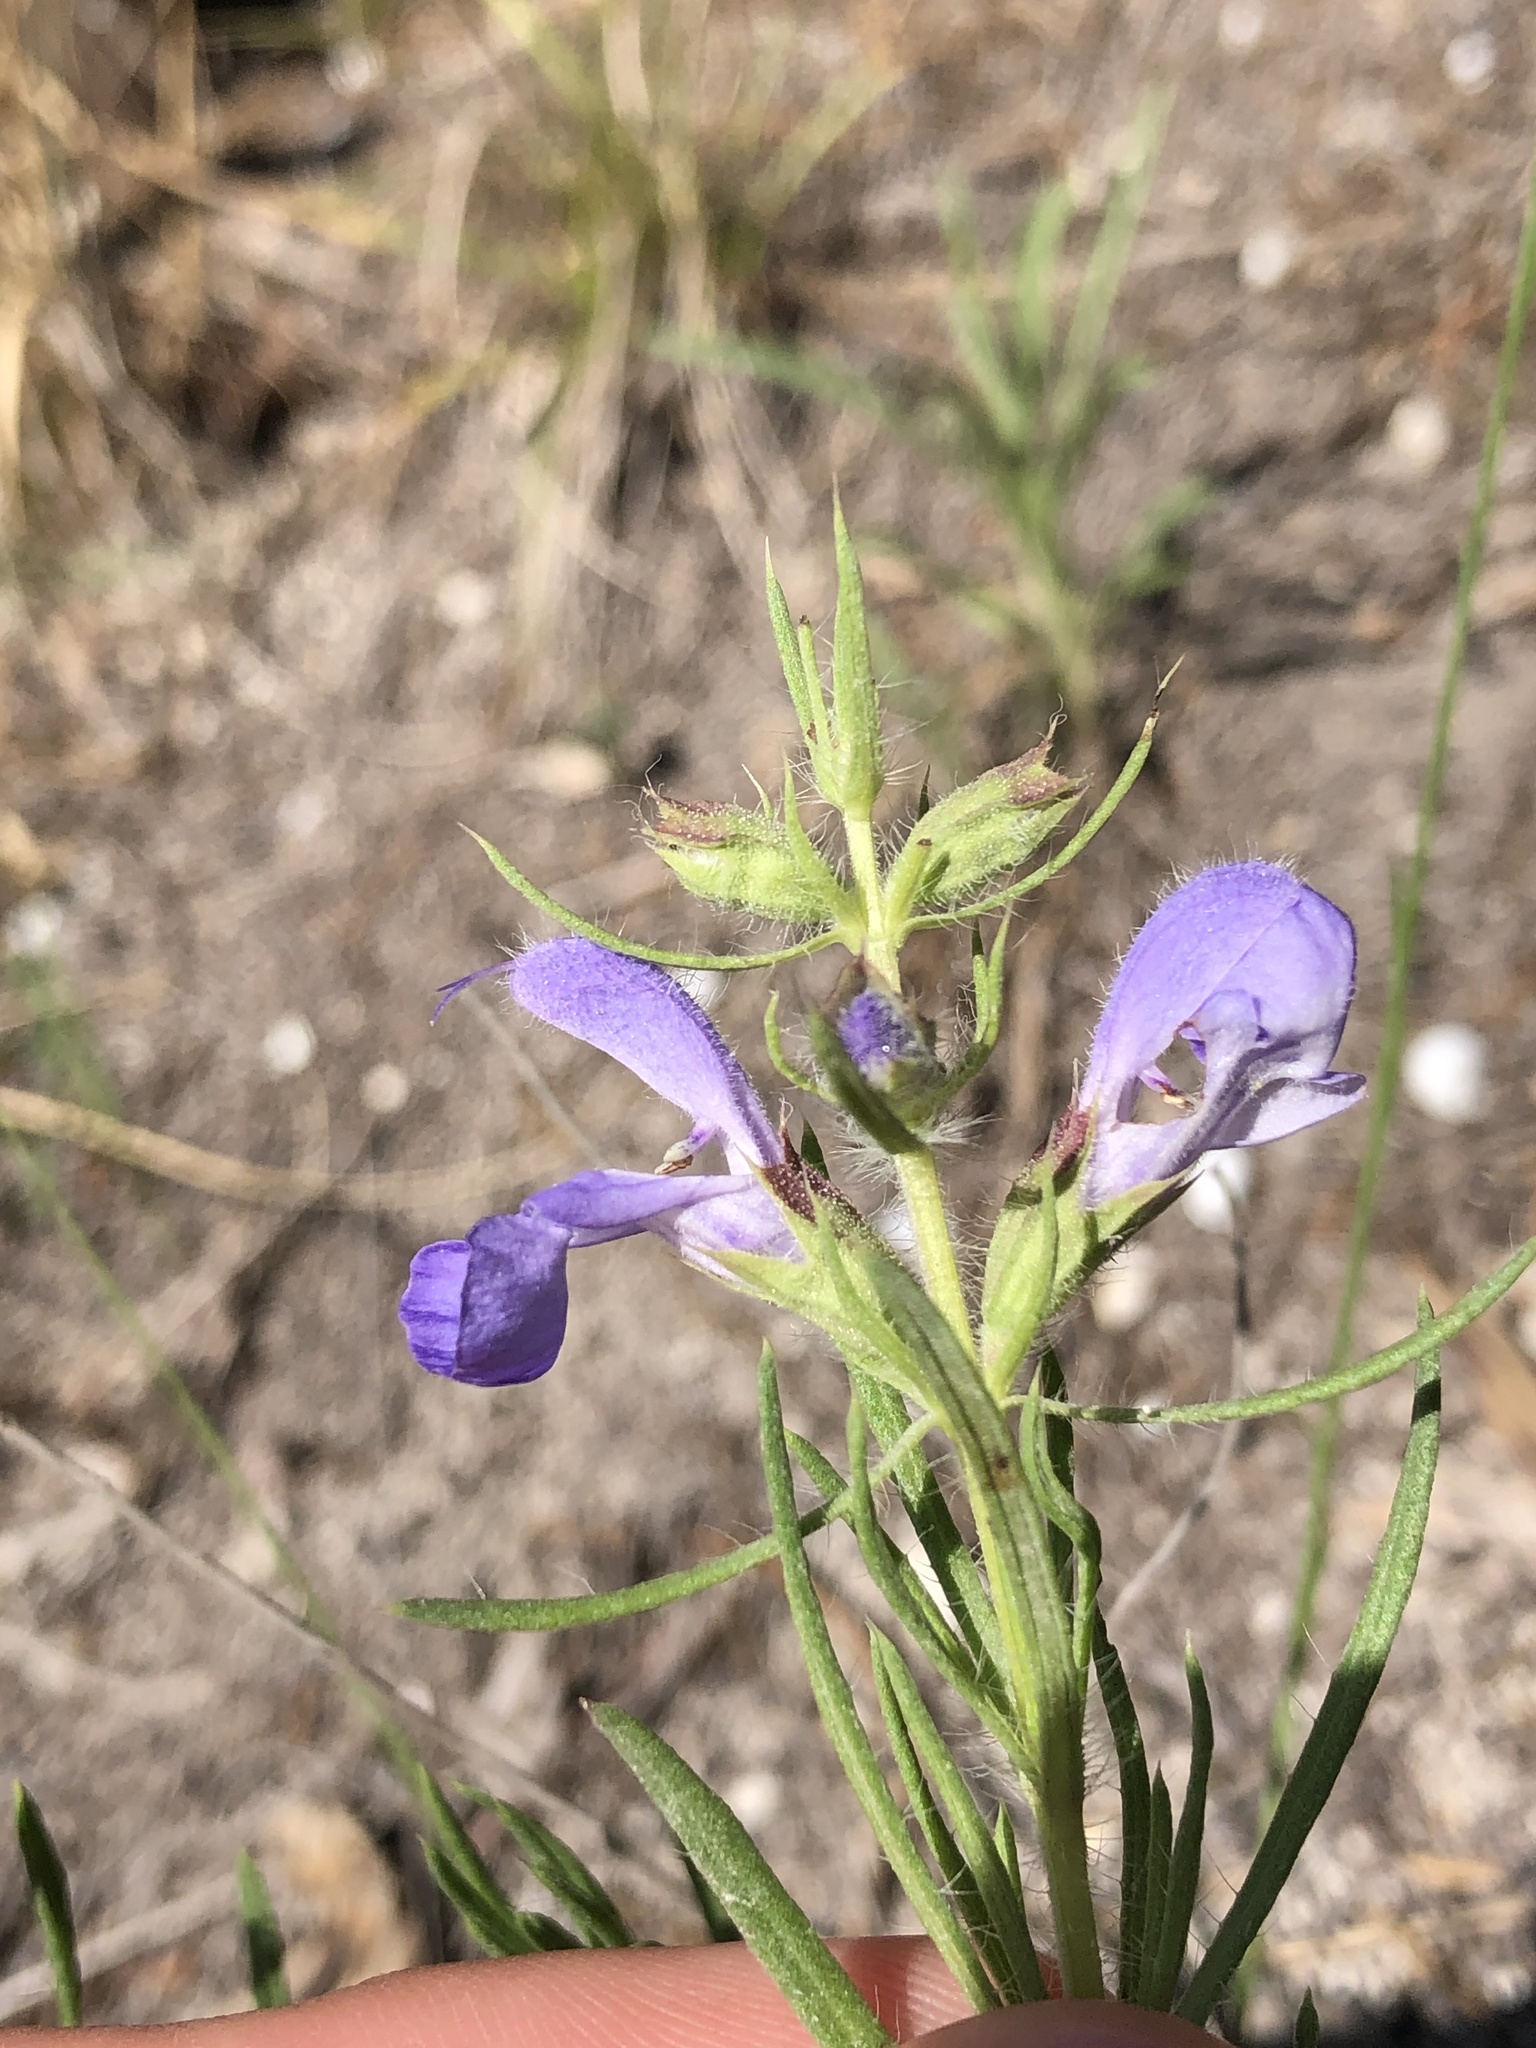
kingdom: Plantae
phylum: Tracheophyta
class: Magnoliopsida
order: Lamiales
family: Lamiaceae
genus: Salvia
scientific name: Salvia engelmannii
